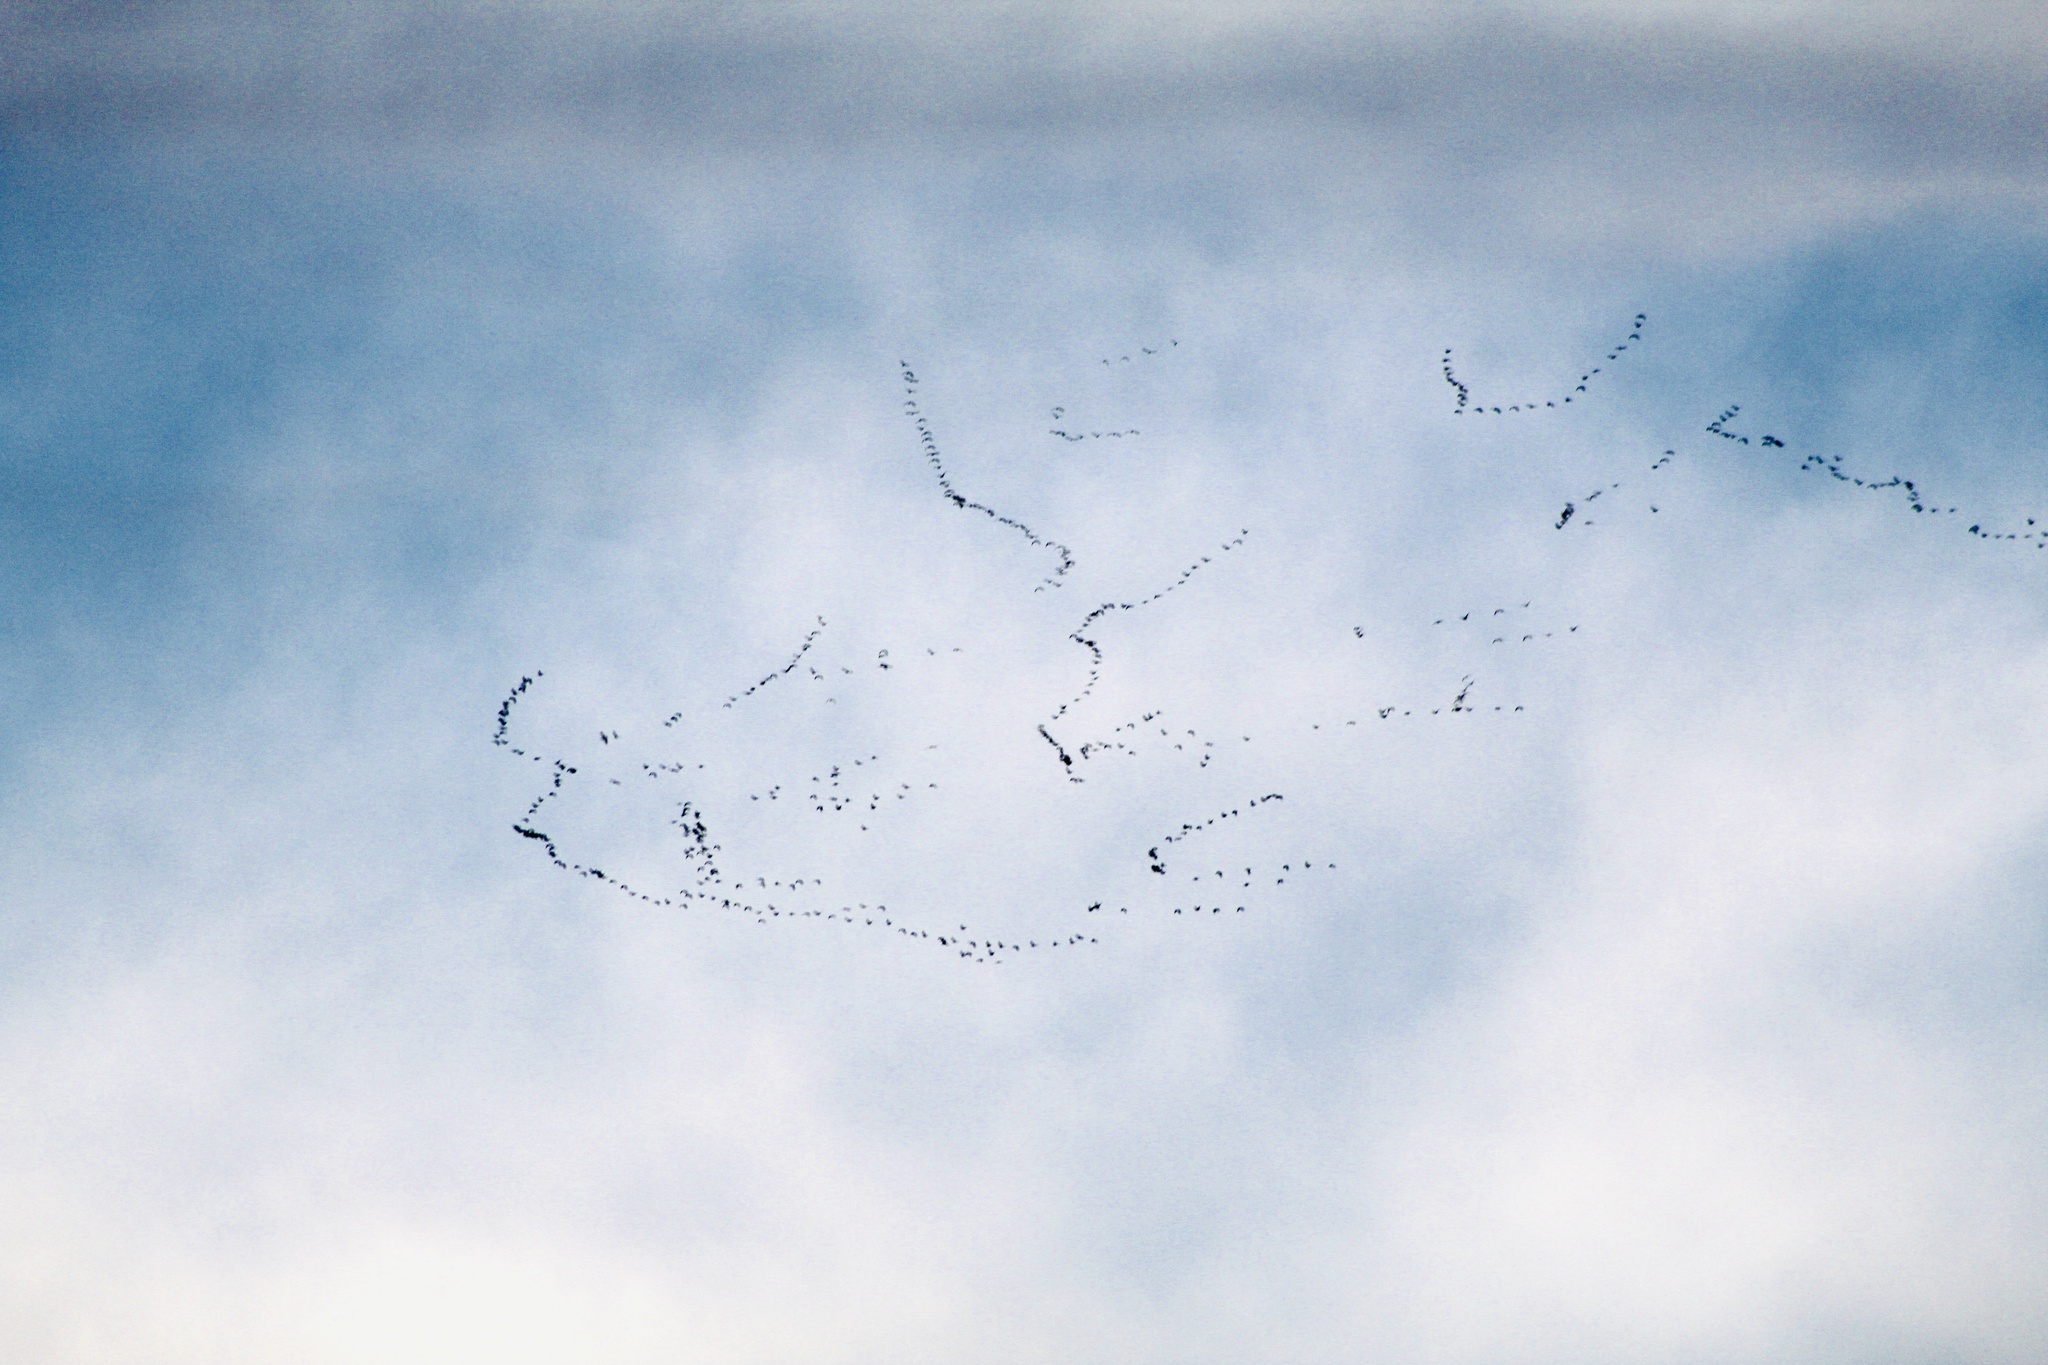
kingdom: Animalia
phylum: Chordata
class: Aves
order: Anseriformes
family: Anatidae
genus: Anser
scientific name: Anser caerulescens
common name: Snow goose
